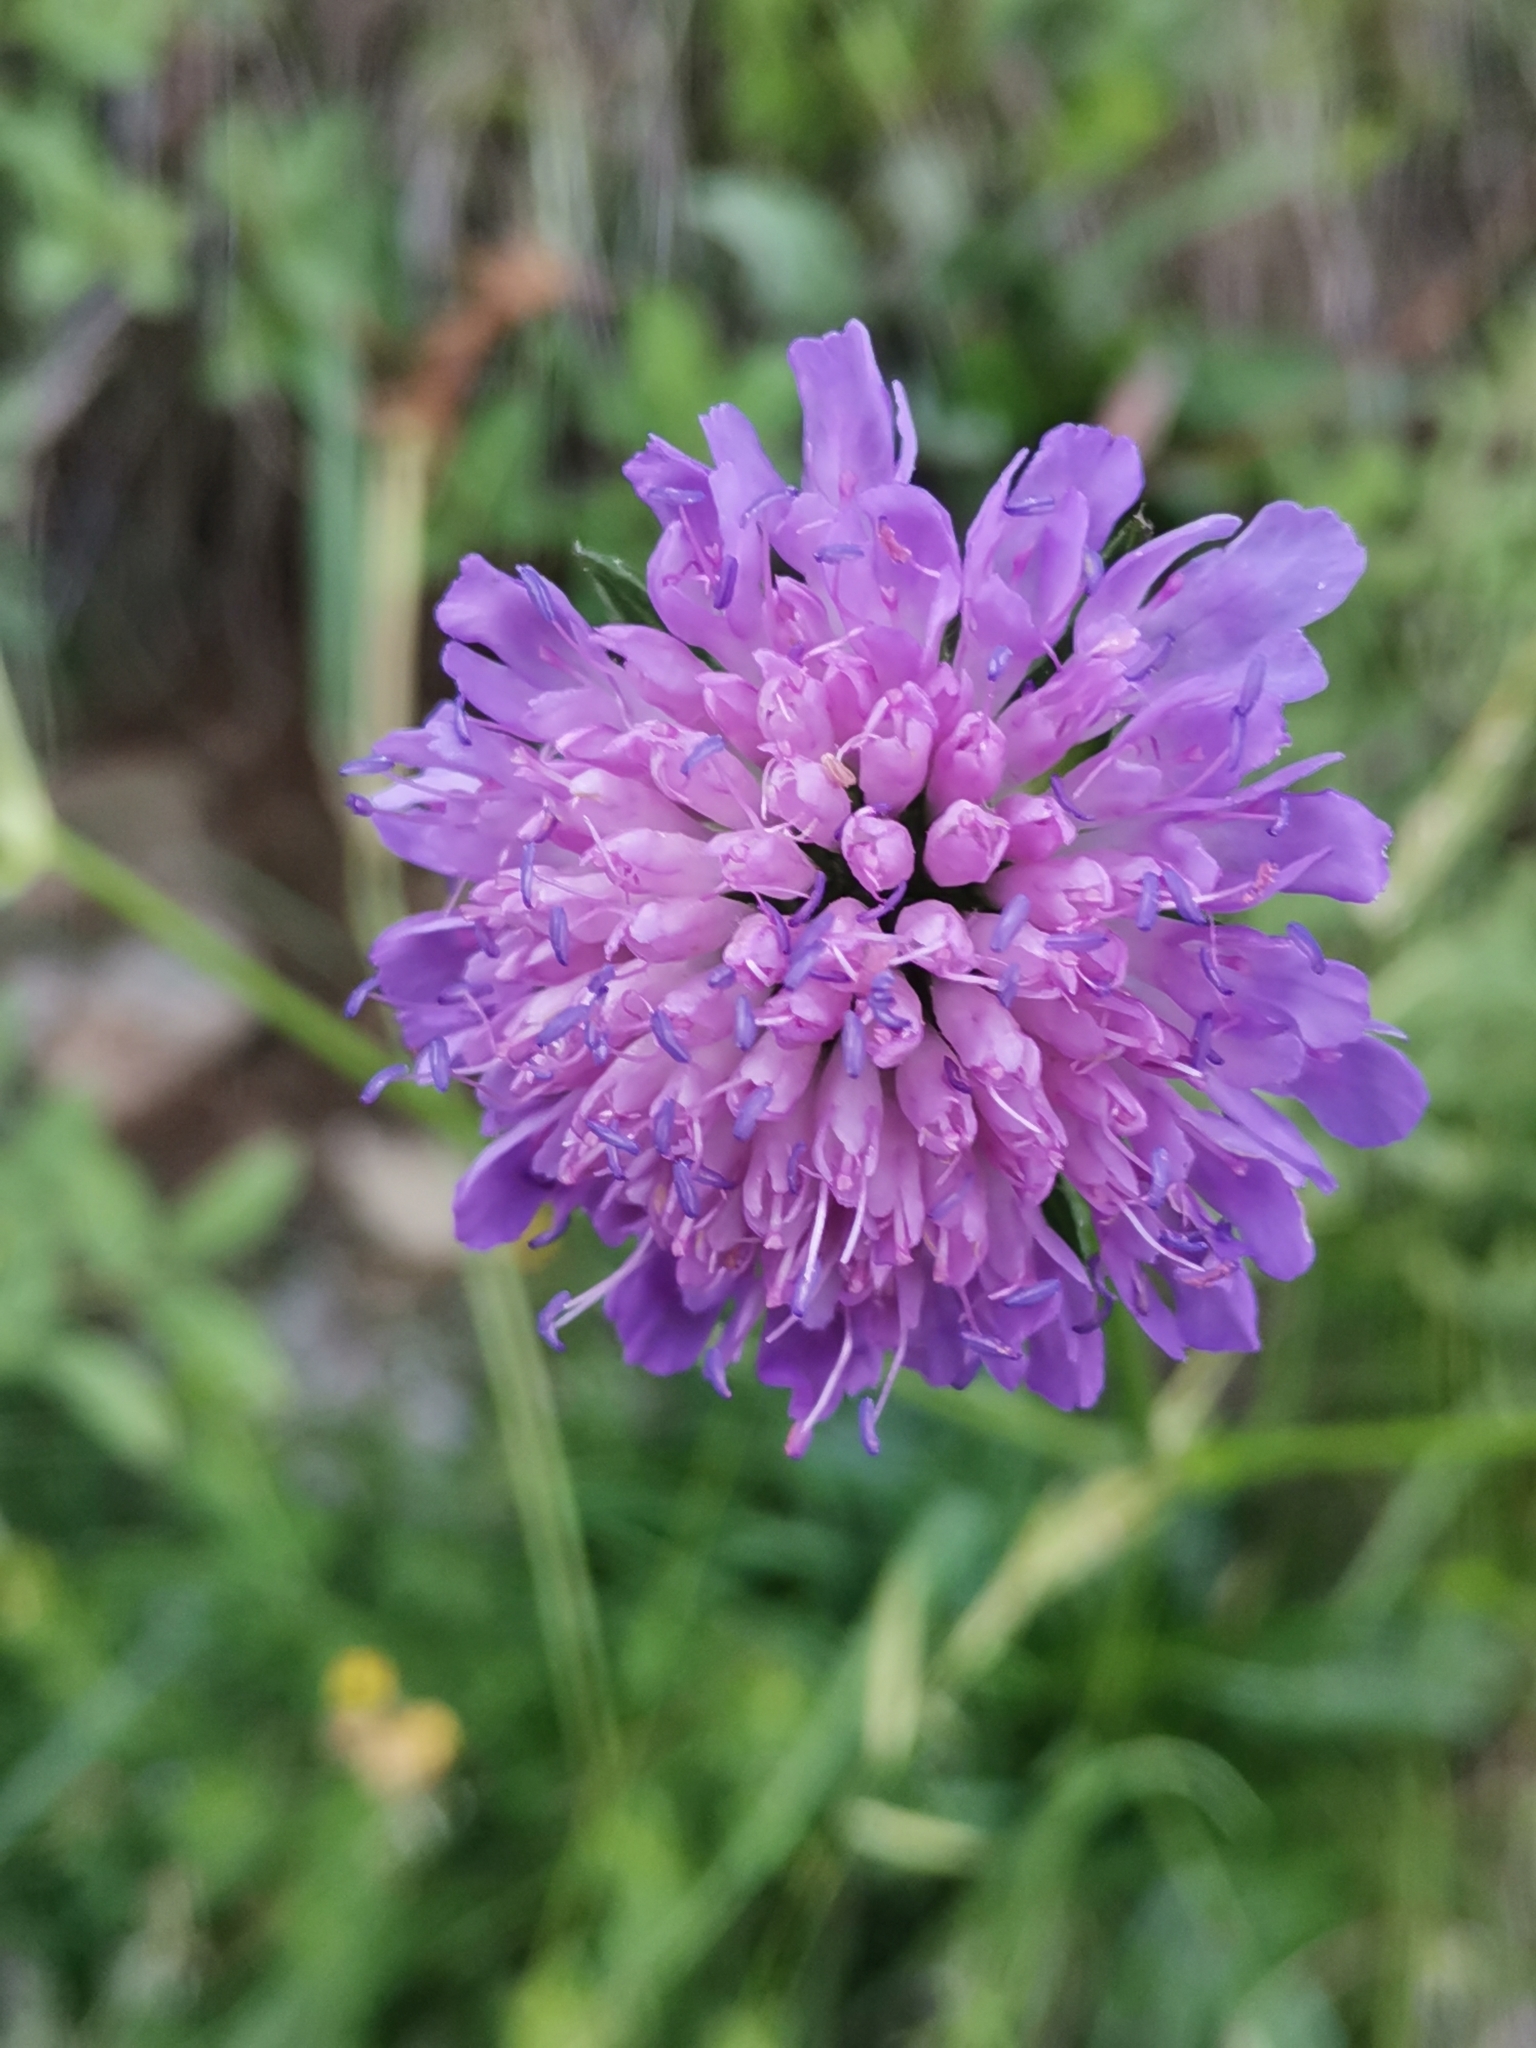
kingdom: Plantae
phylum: Tracheophyta
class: Magnoliopsida
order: Dipsacales
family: Caprifoliaceae
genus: Knautia
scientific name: Knautia fleischmannii
